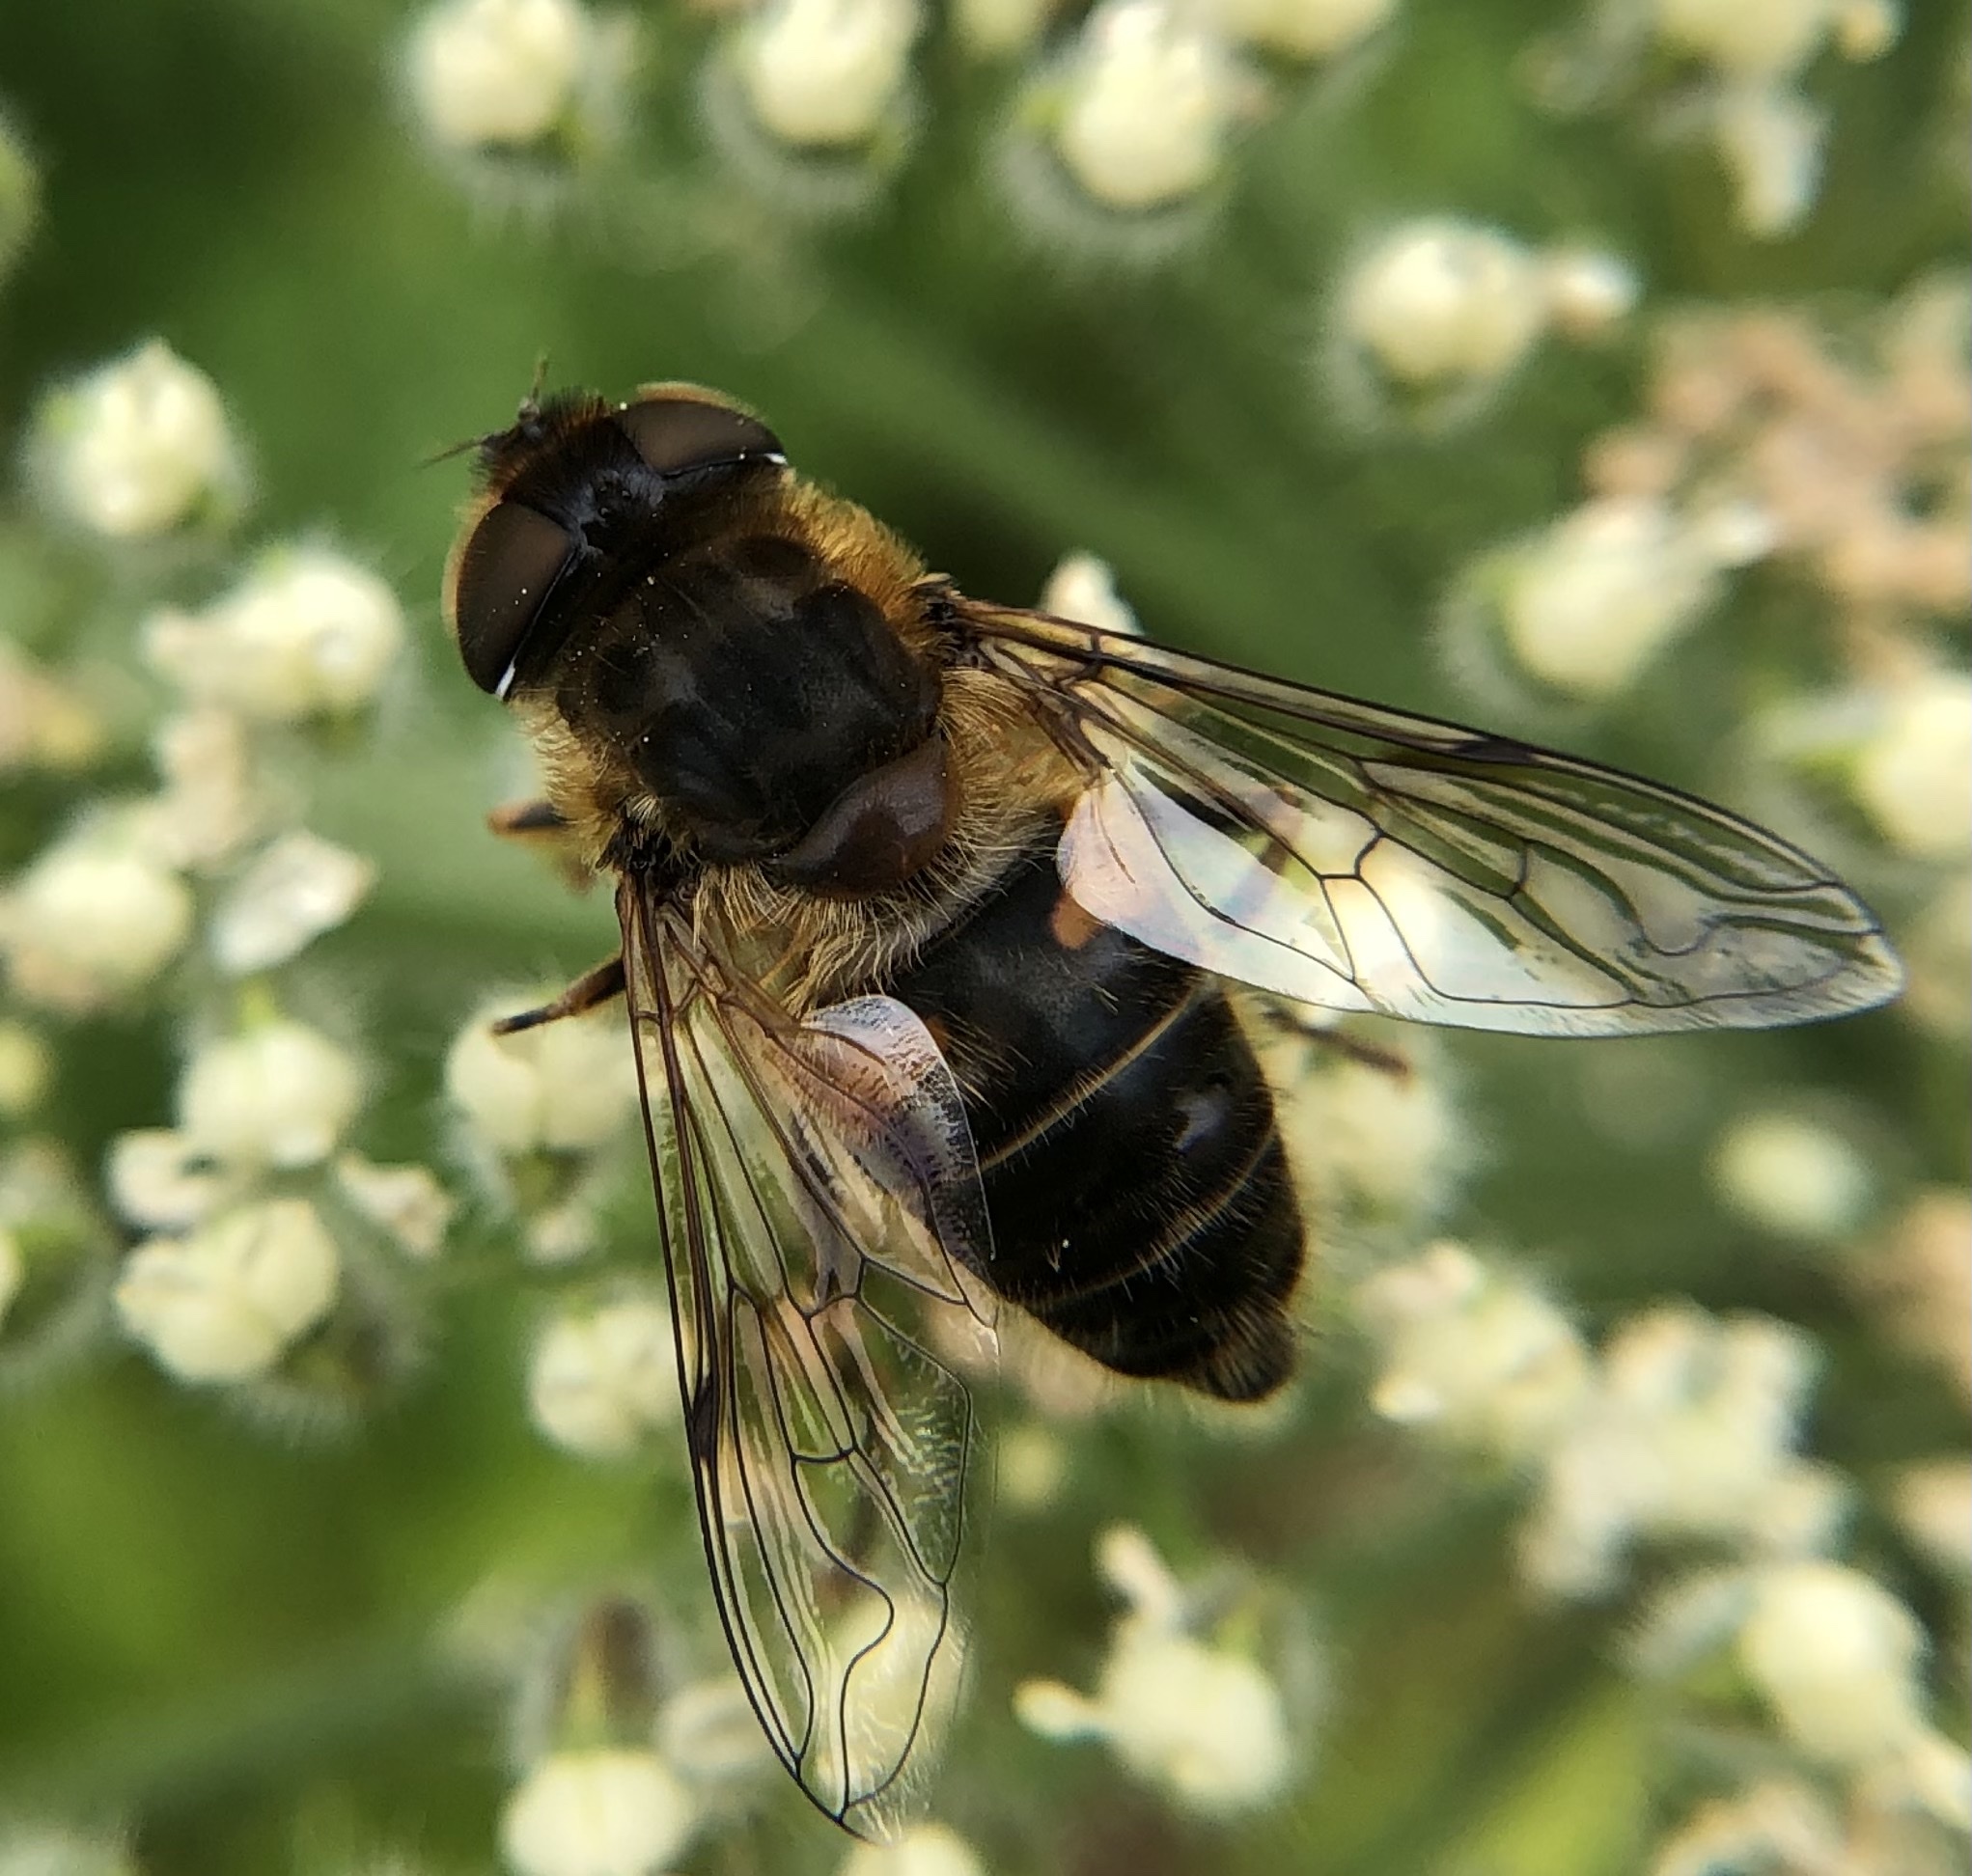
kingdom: Animalia
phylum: Arthropoda
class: Insecta
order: Diptera
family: Syrphidae
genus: Eristalis
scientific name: Eristalis
